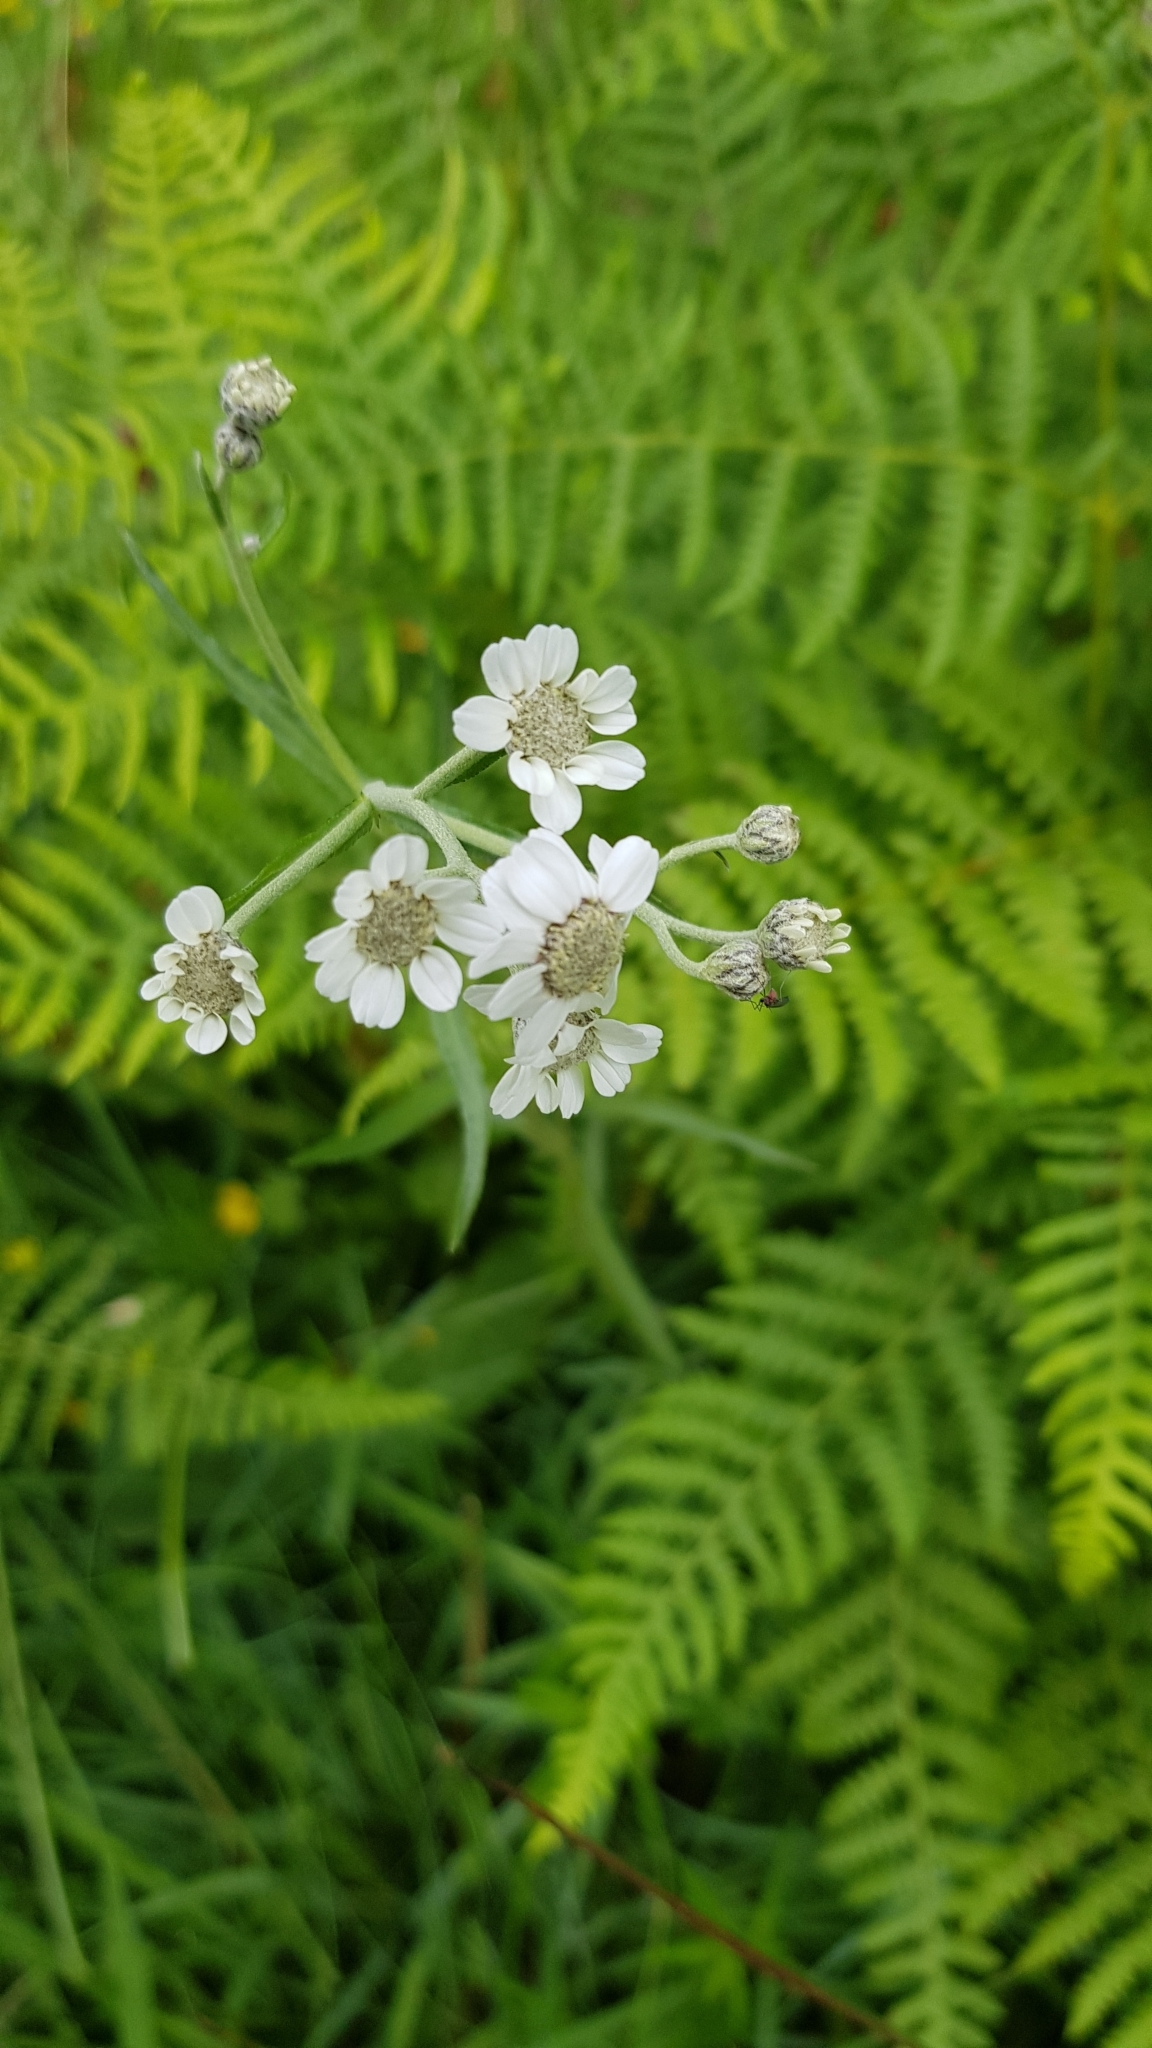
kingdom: Plantae
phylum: Tracheophyta
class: Magnoliopsida
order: Asterales
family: Asteraceae
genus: Achillea
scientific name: Achillea ptarmica
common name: Sneezeweed
